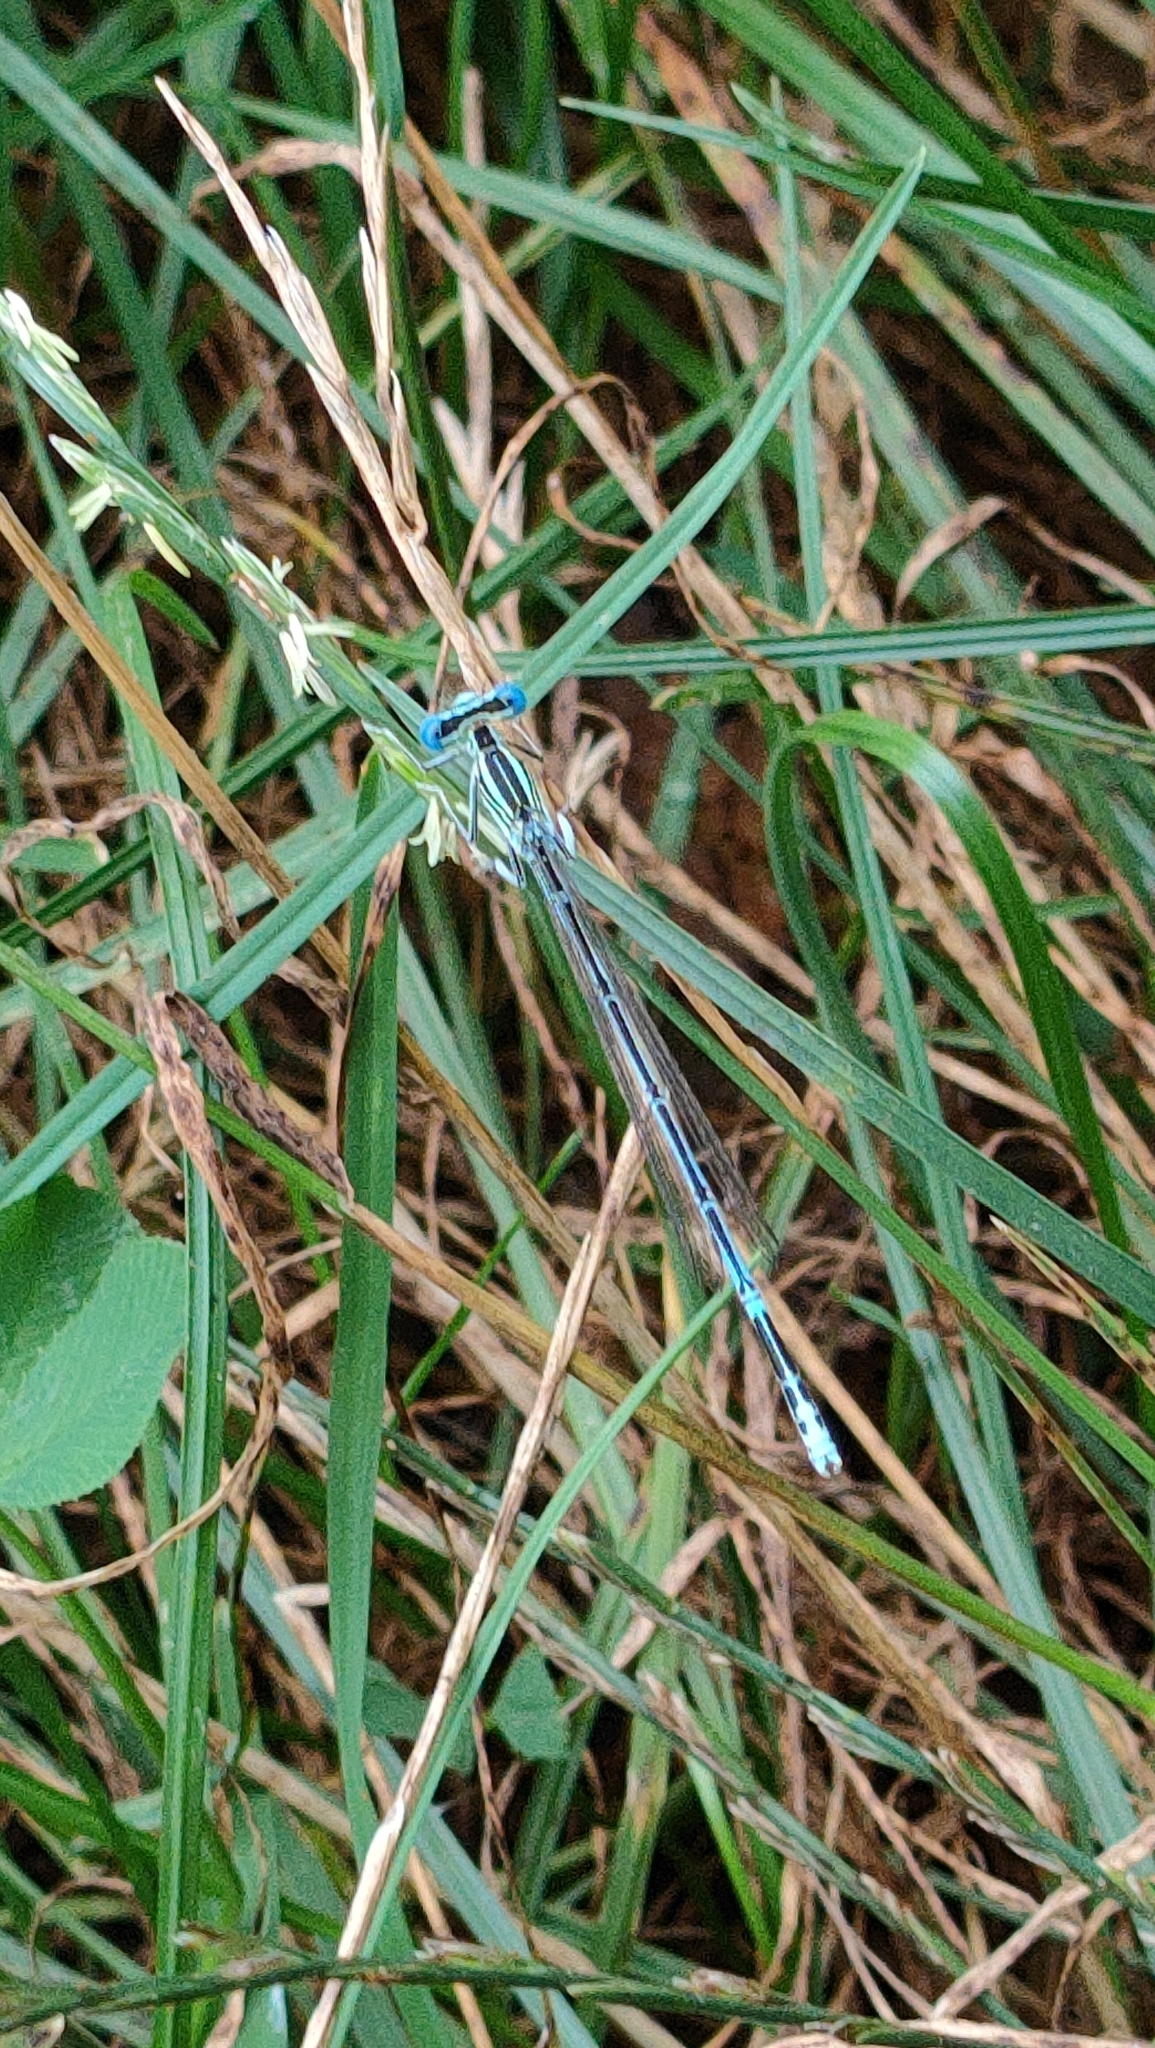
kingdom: Animalia
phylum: Arthropoda
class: Insecta
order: Odonata
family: Platycnemididae
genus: Platycnemis
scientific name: Platycnemis pennipes
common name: White-legged damselfly
